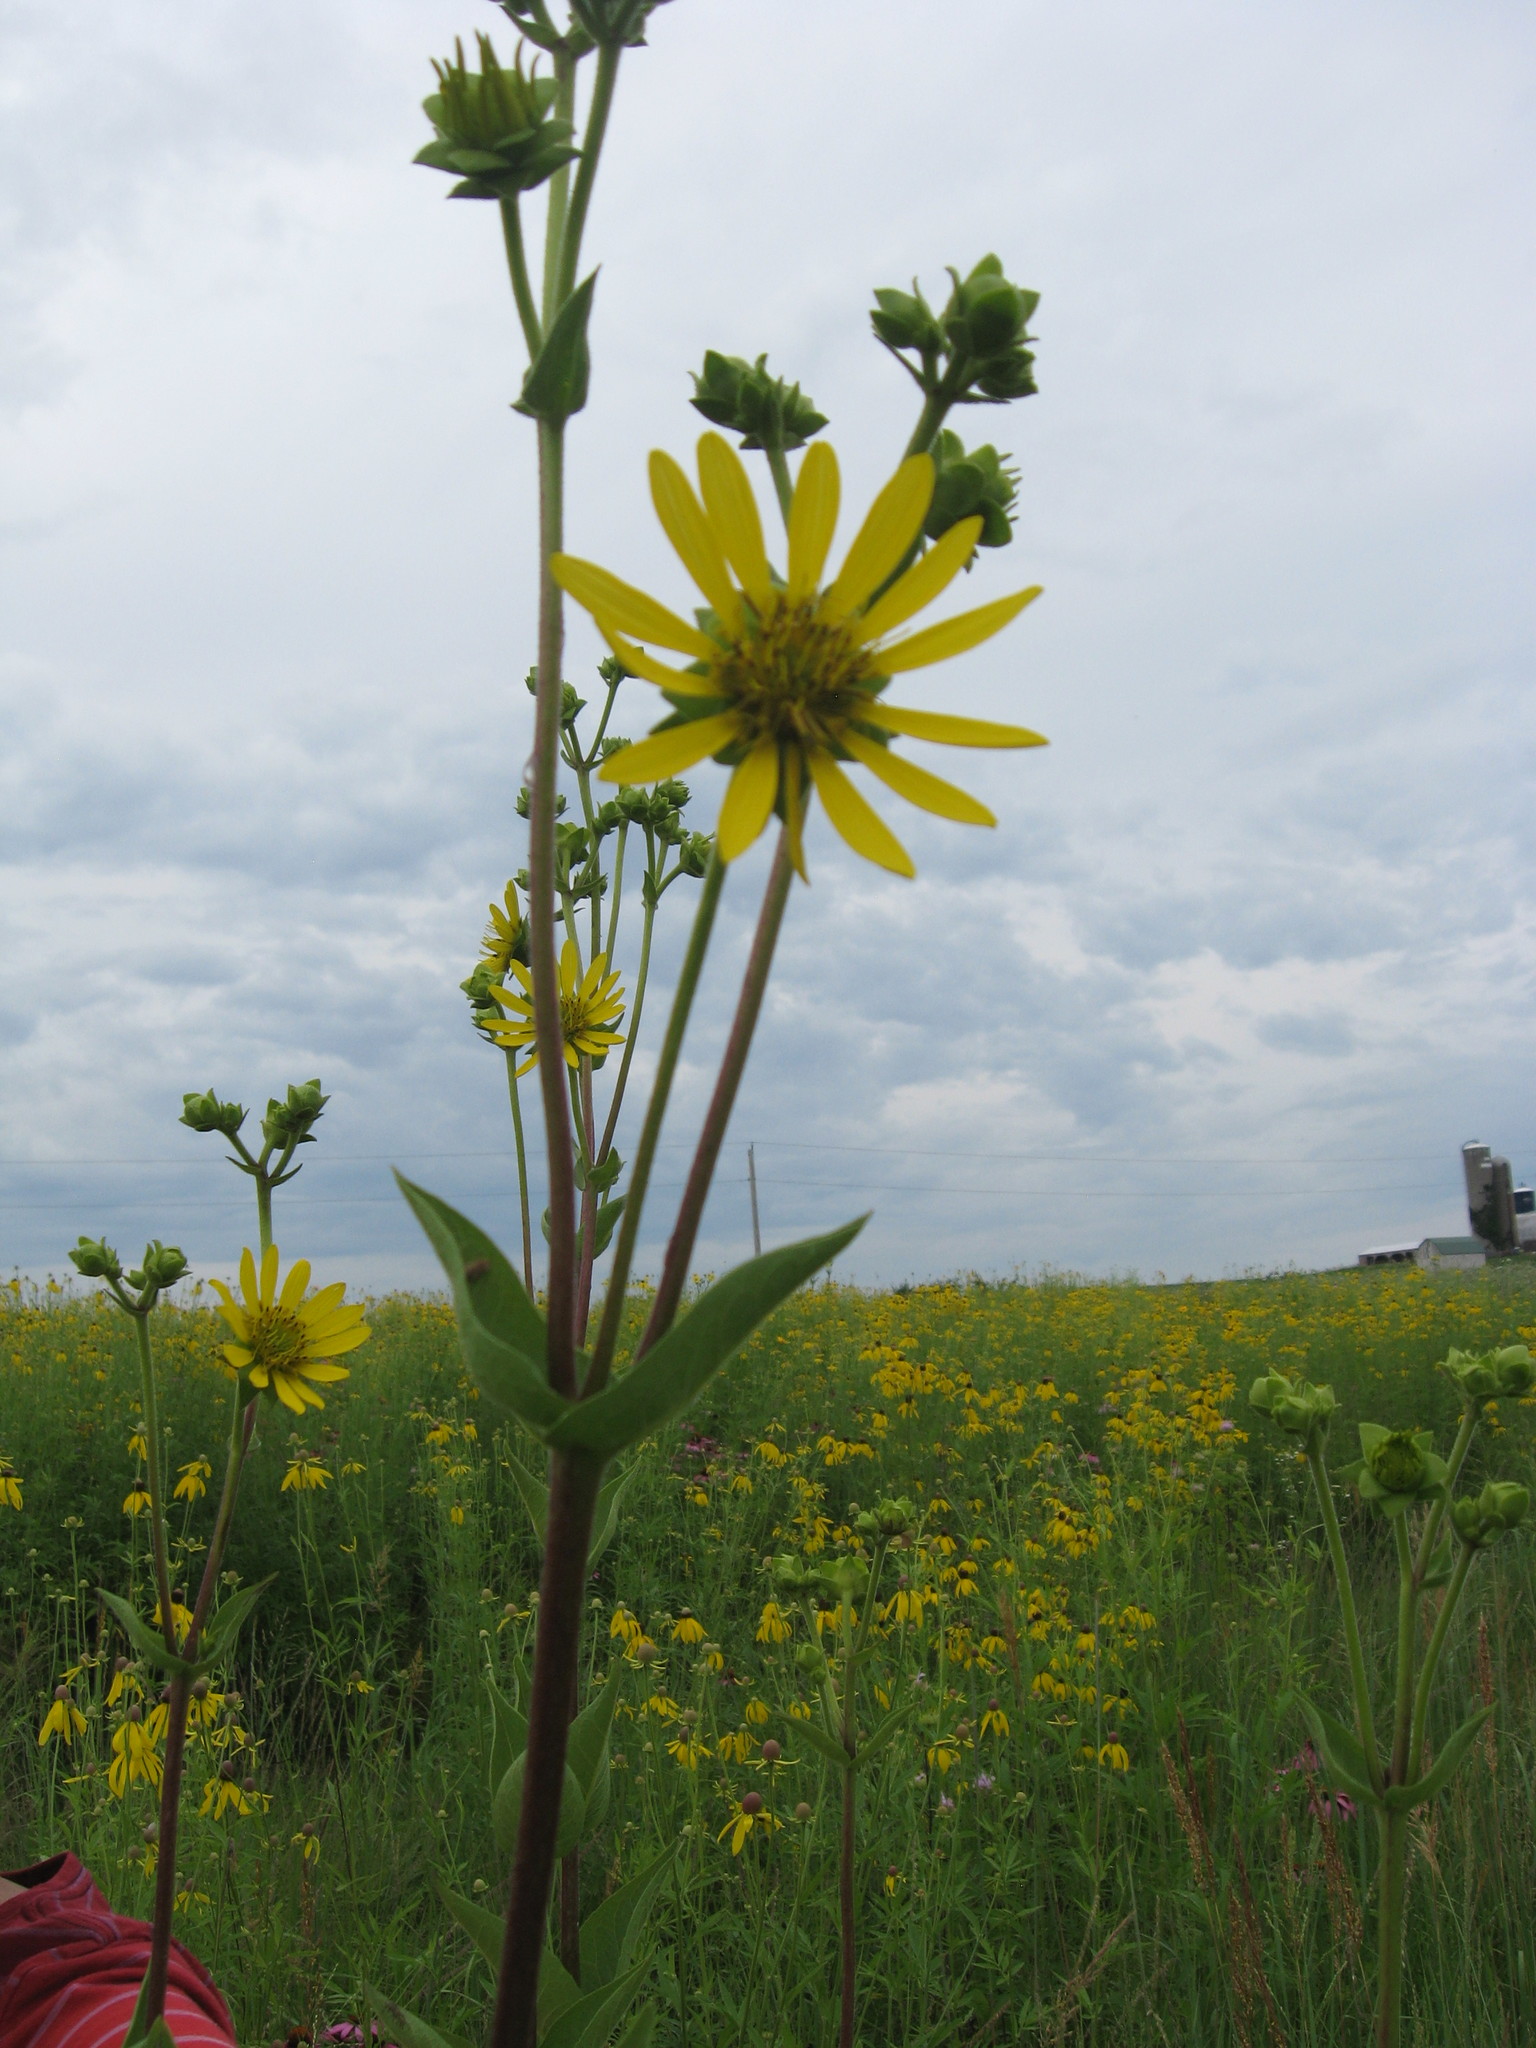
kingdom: Plantae
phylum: Tracheophyta
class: Magnoliopsida
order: Asterales
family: Asteraceae
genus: Silphium
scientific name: Silphium integrifolium
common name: Whole-leaf rosinweed
